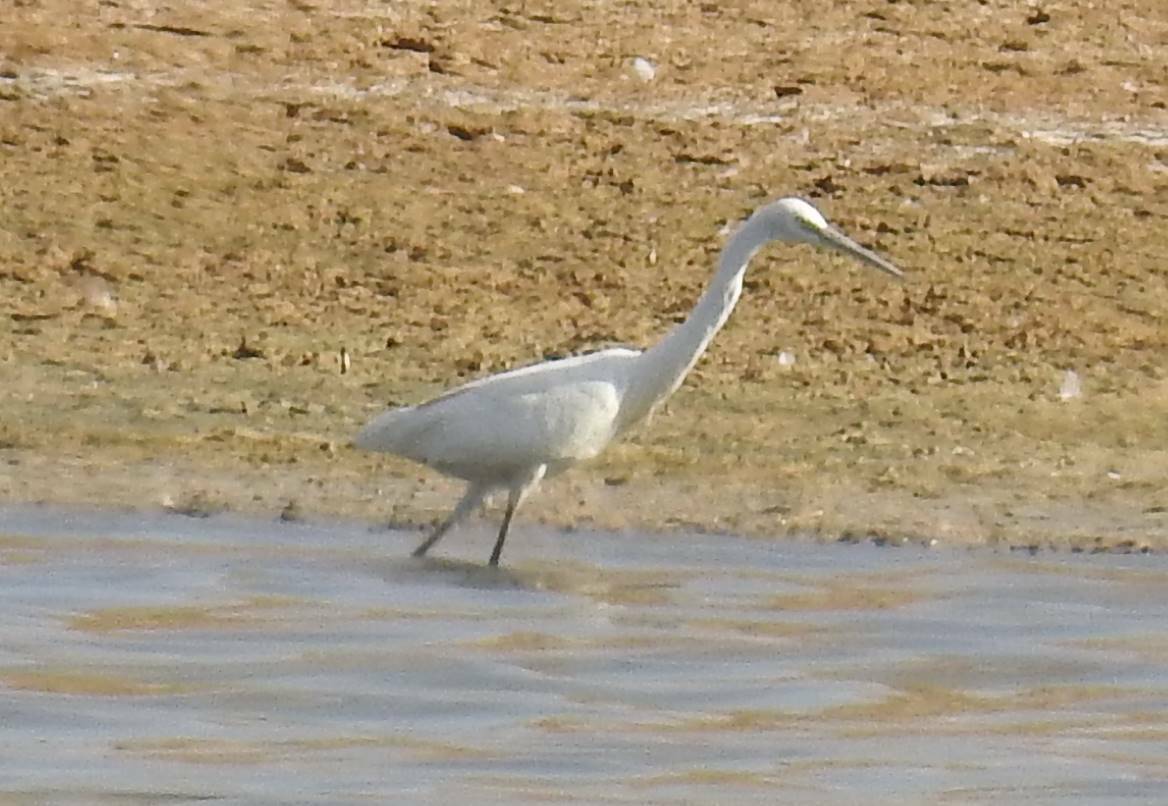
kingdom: Animalia
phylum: Chordata
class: Aves
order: Pelecaniformes
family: Ardeidae
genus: Egretta
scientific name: Egretta garzetta
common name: Little egret
